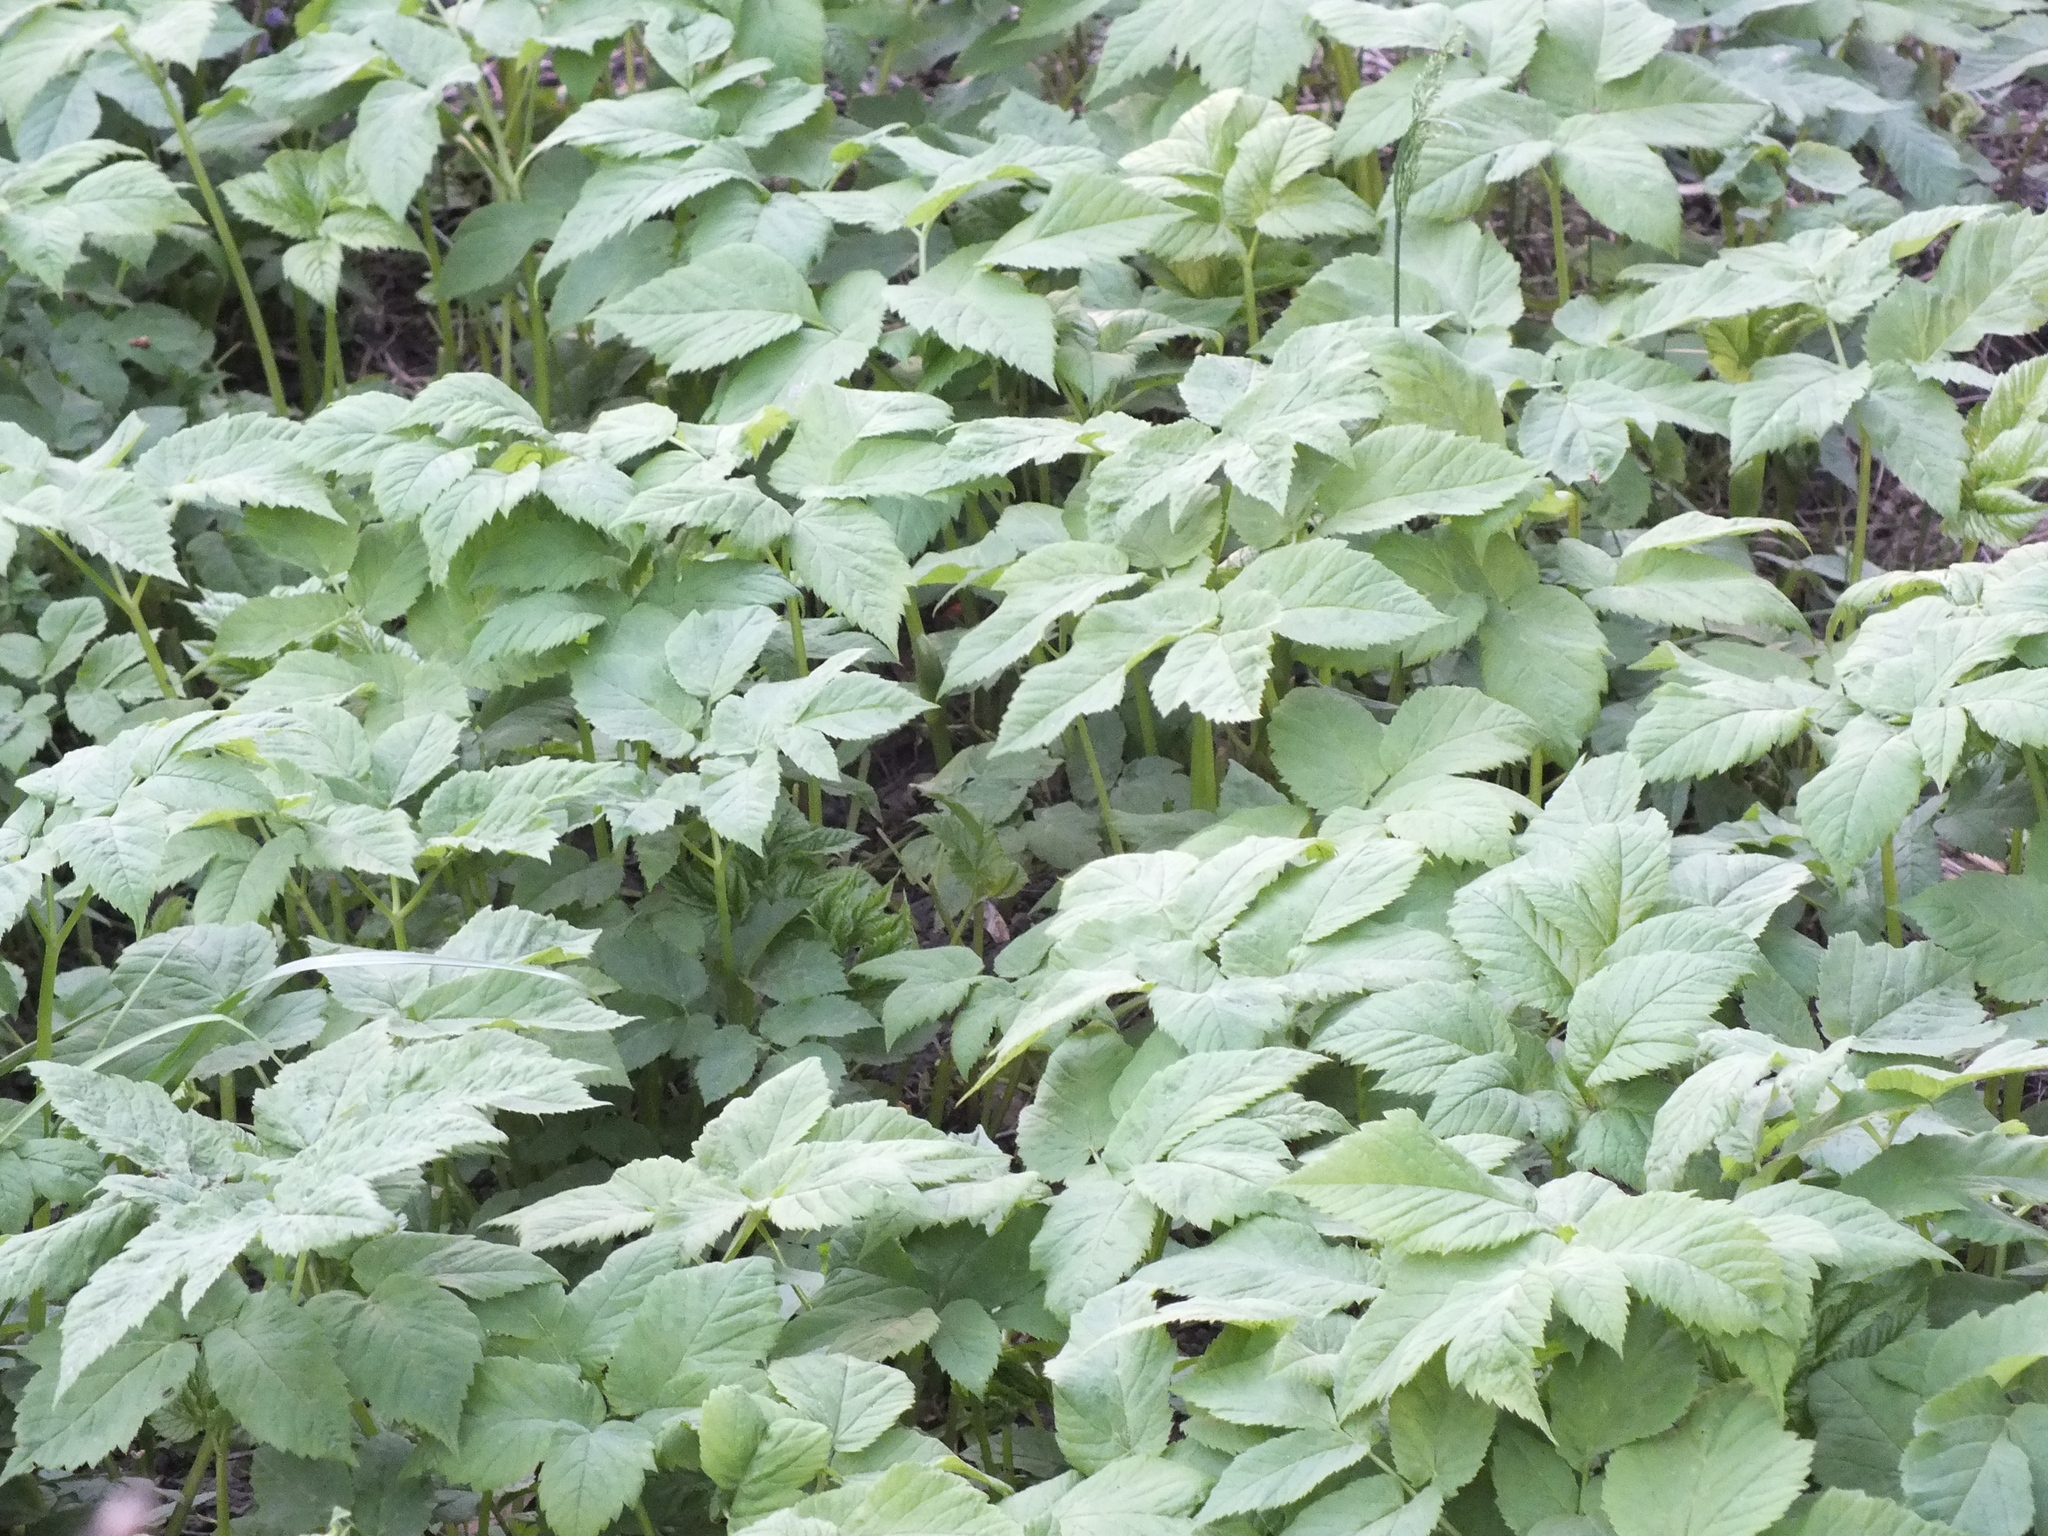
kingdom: Plantae
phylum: Tracheophyta
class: Magnoliopsida
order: Apiales
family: Apiaceae
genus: Aegopodium
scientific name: Aegopodium podagraria
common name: Ground-elder
